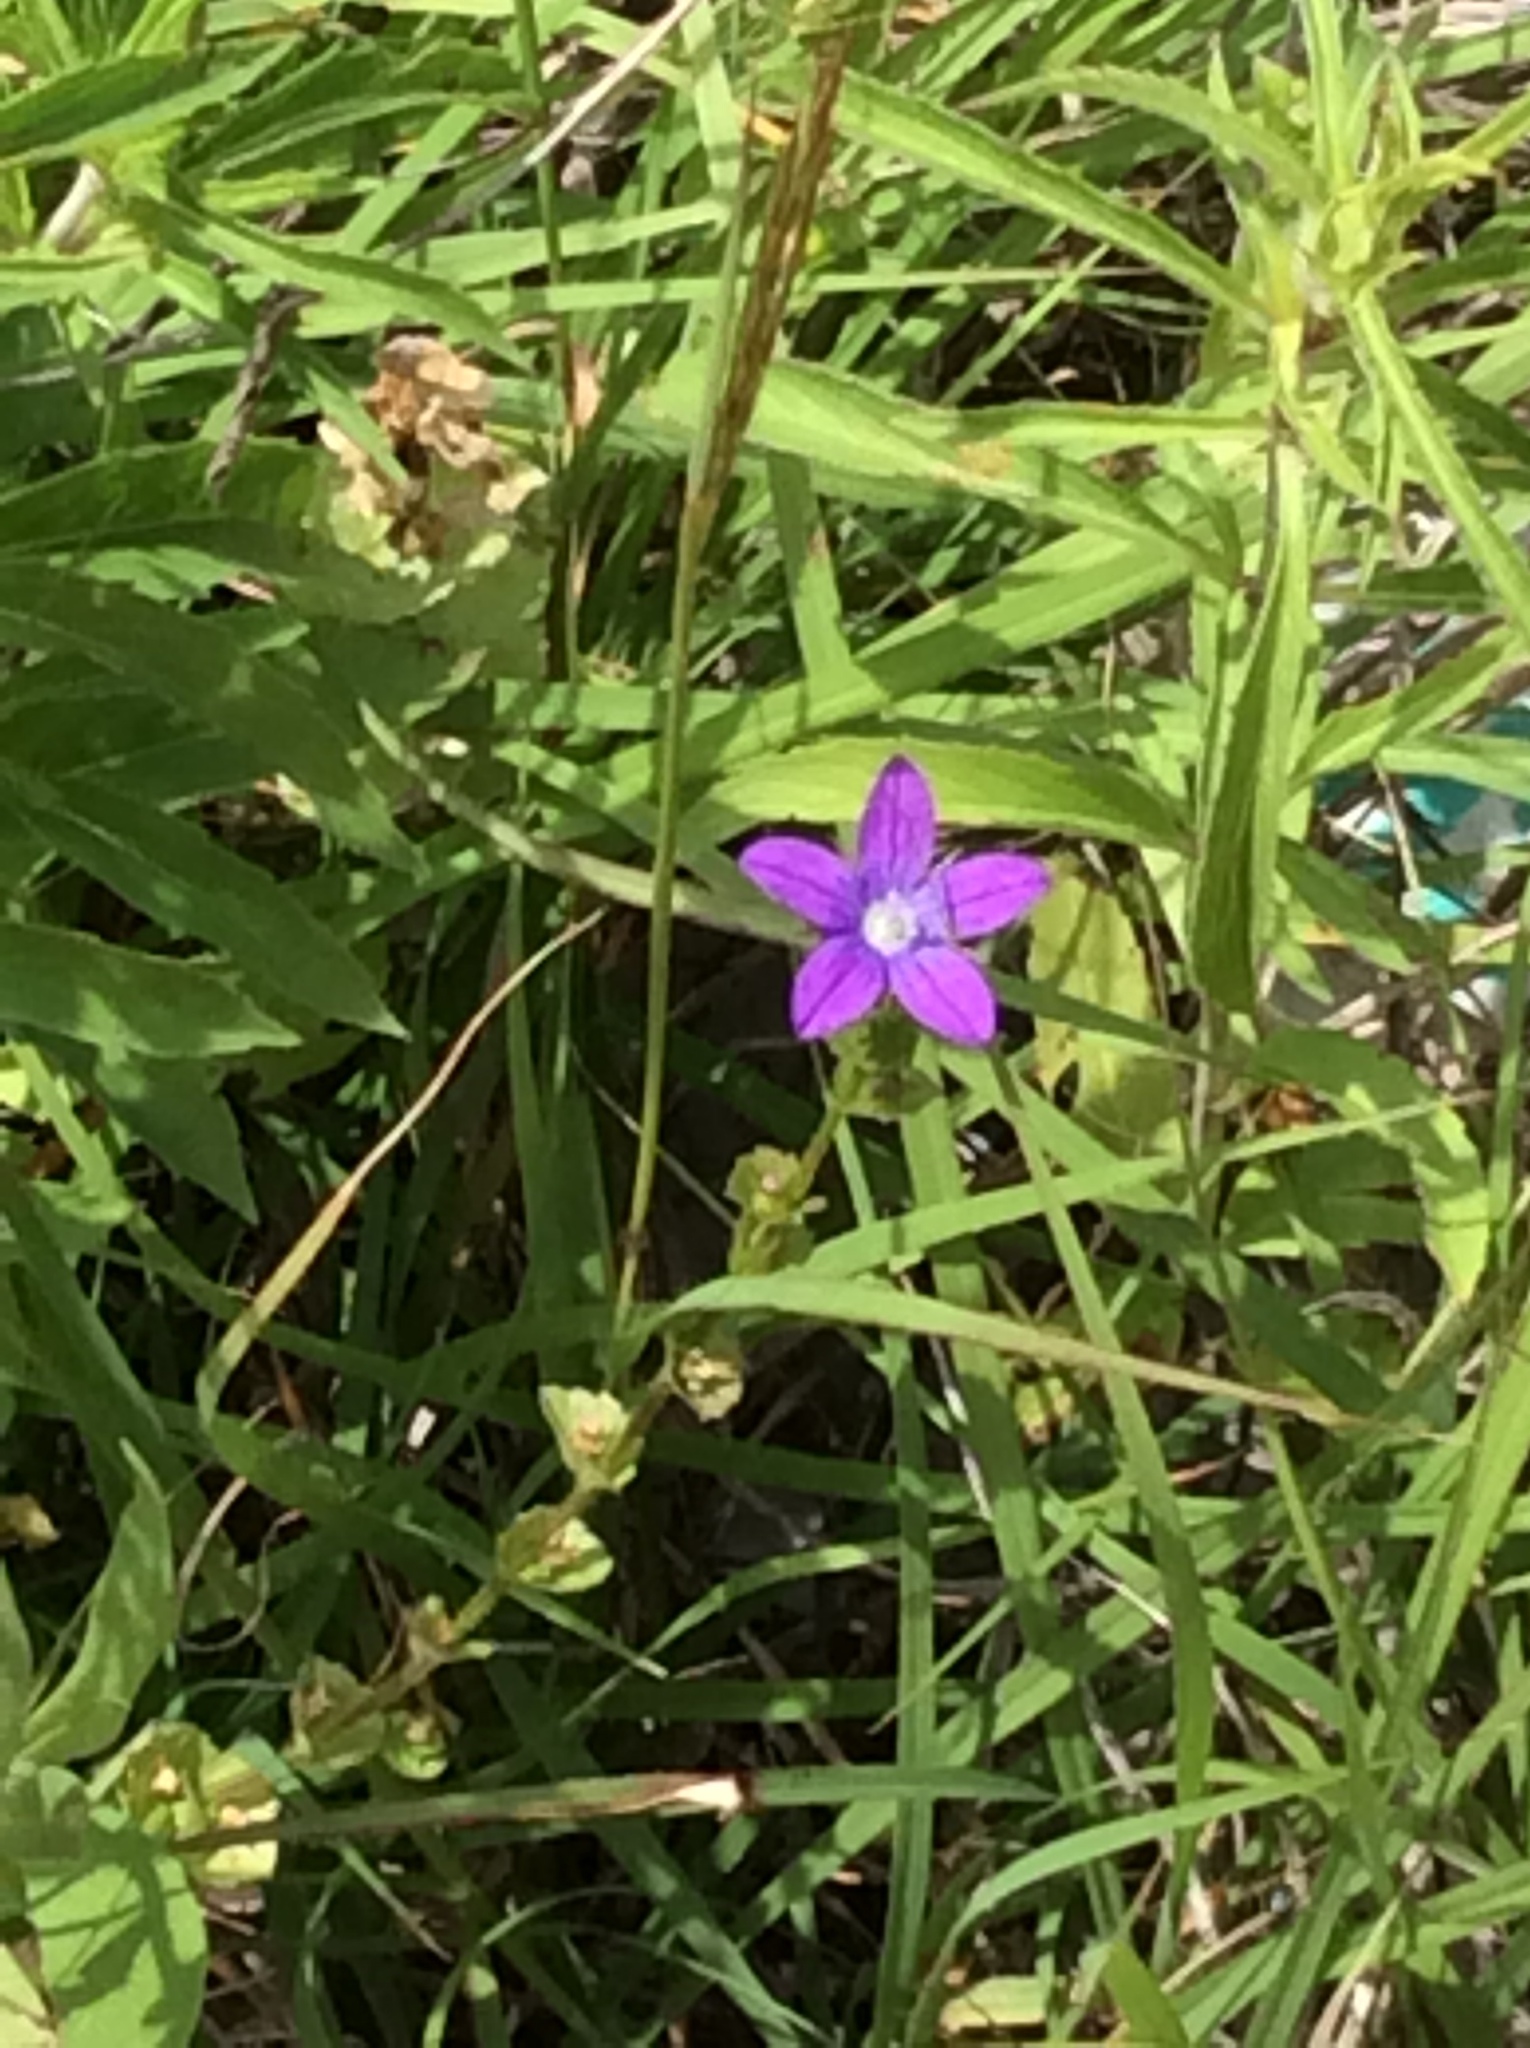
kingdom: Plantae
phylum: Tracheophyta
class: Magnoliopsida
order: Asterales
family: Campanulaceae
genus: Triodanis
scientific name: Triodanis perfoliata
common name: Clasping venus' looking-glass
